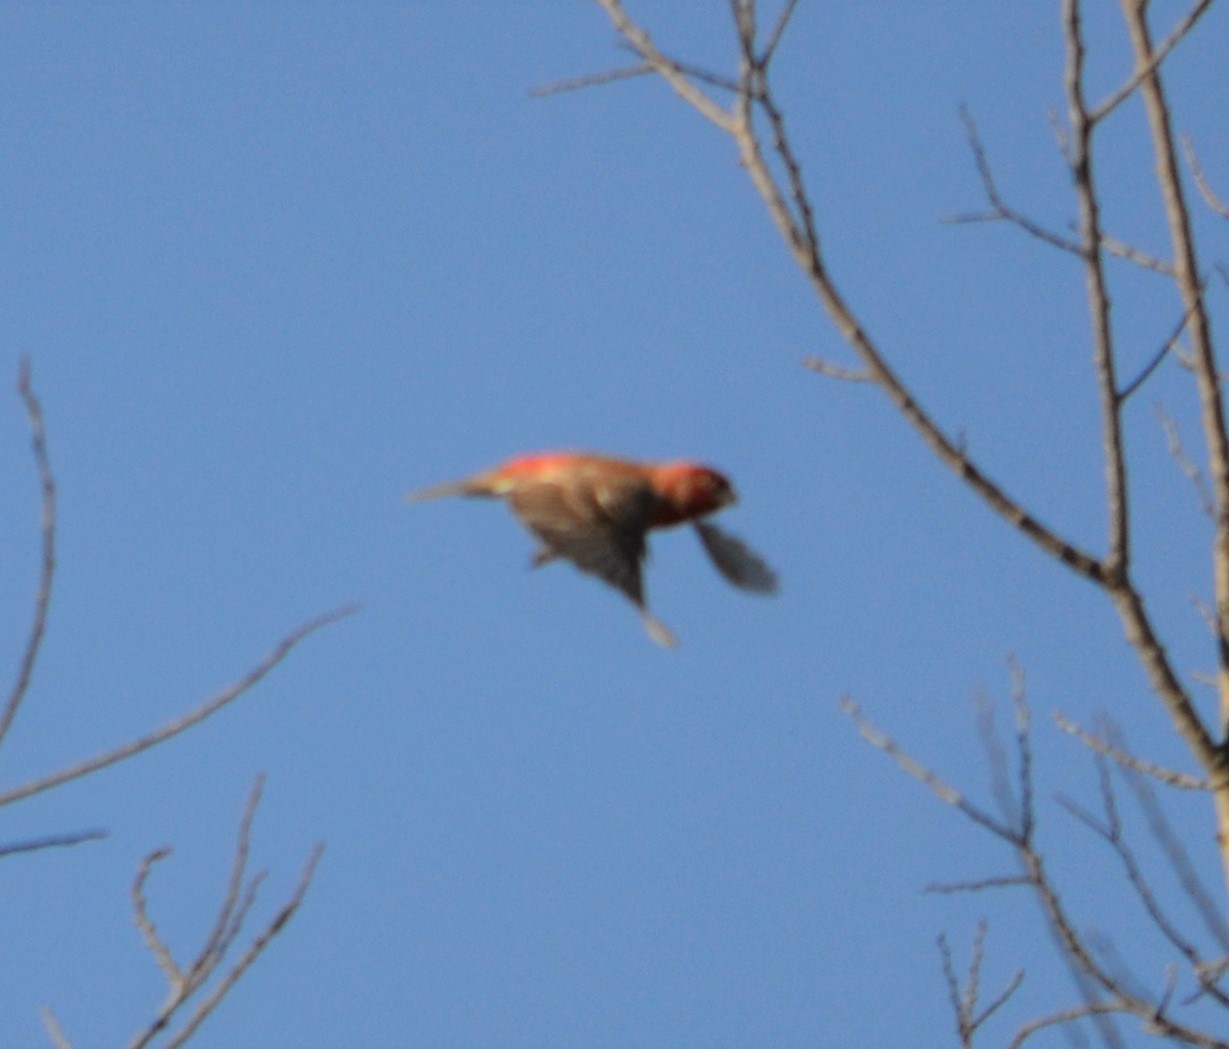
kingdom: Animalia
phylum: Chordata
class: Aves
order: Passeriformes
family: Fringillidae
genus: Haemorhous
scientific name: Haemorhous mexicanus
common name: House finch
